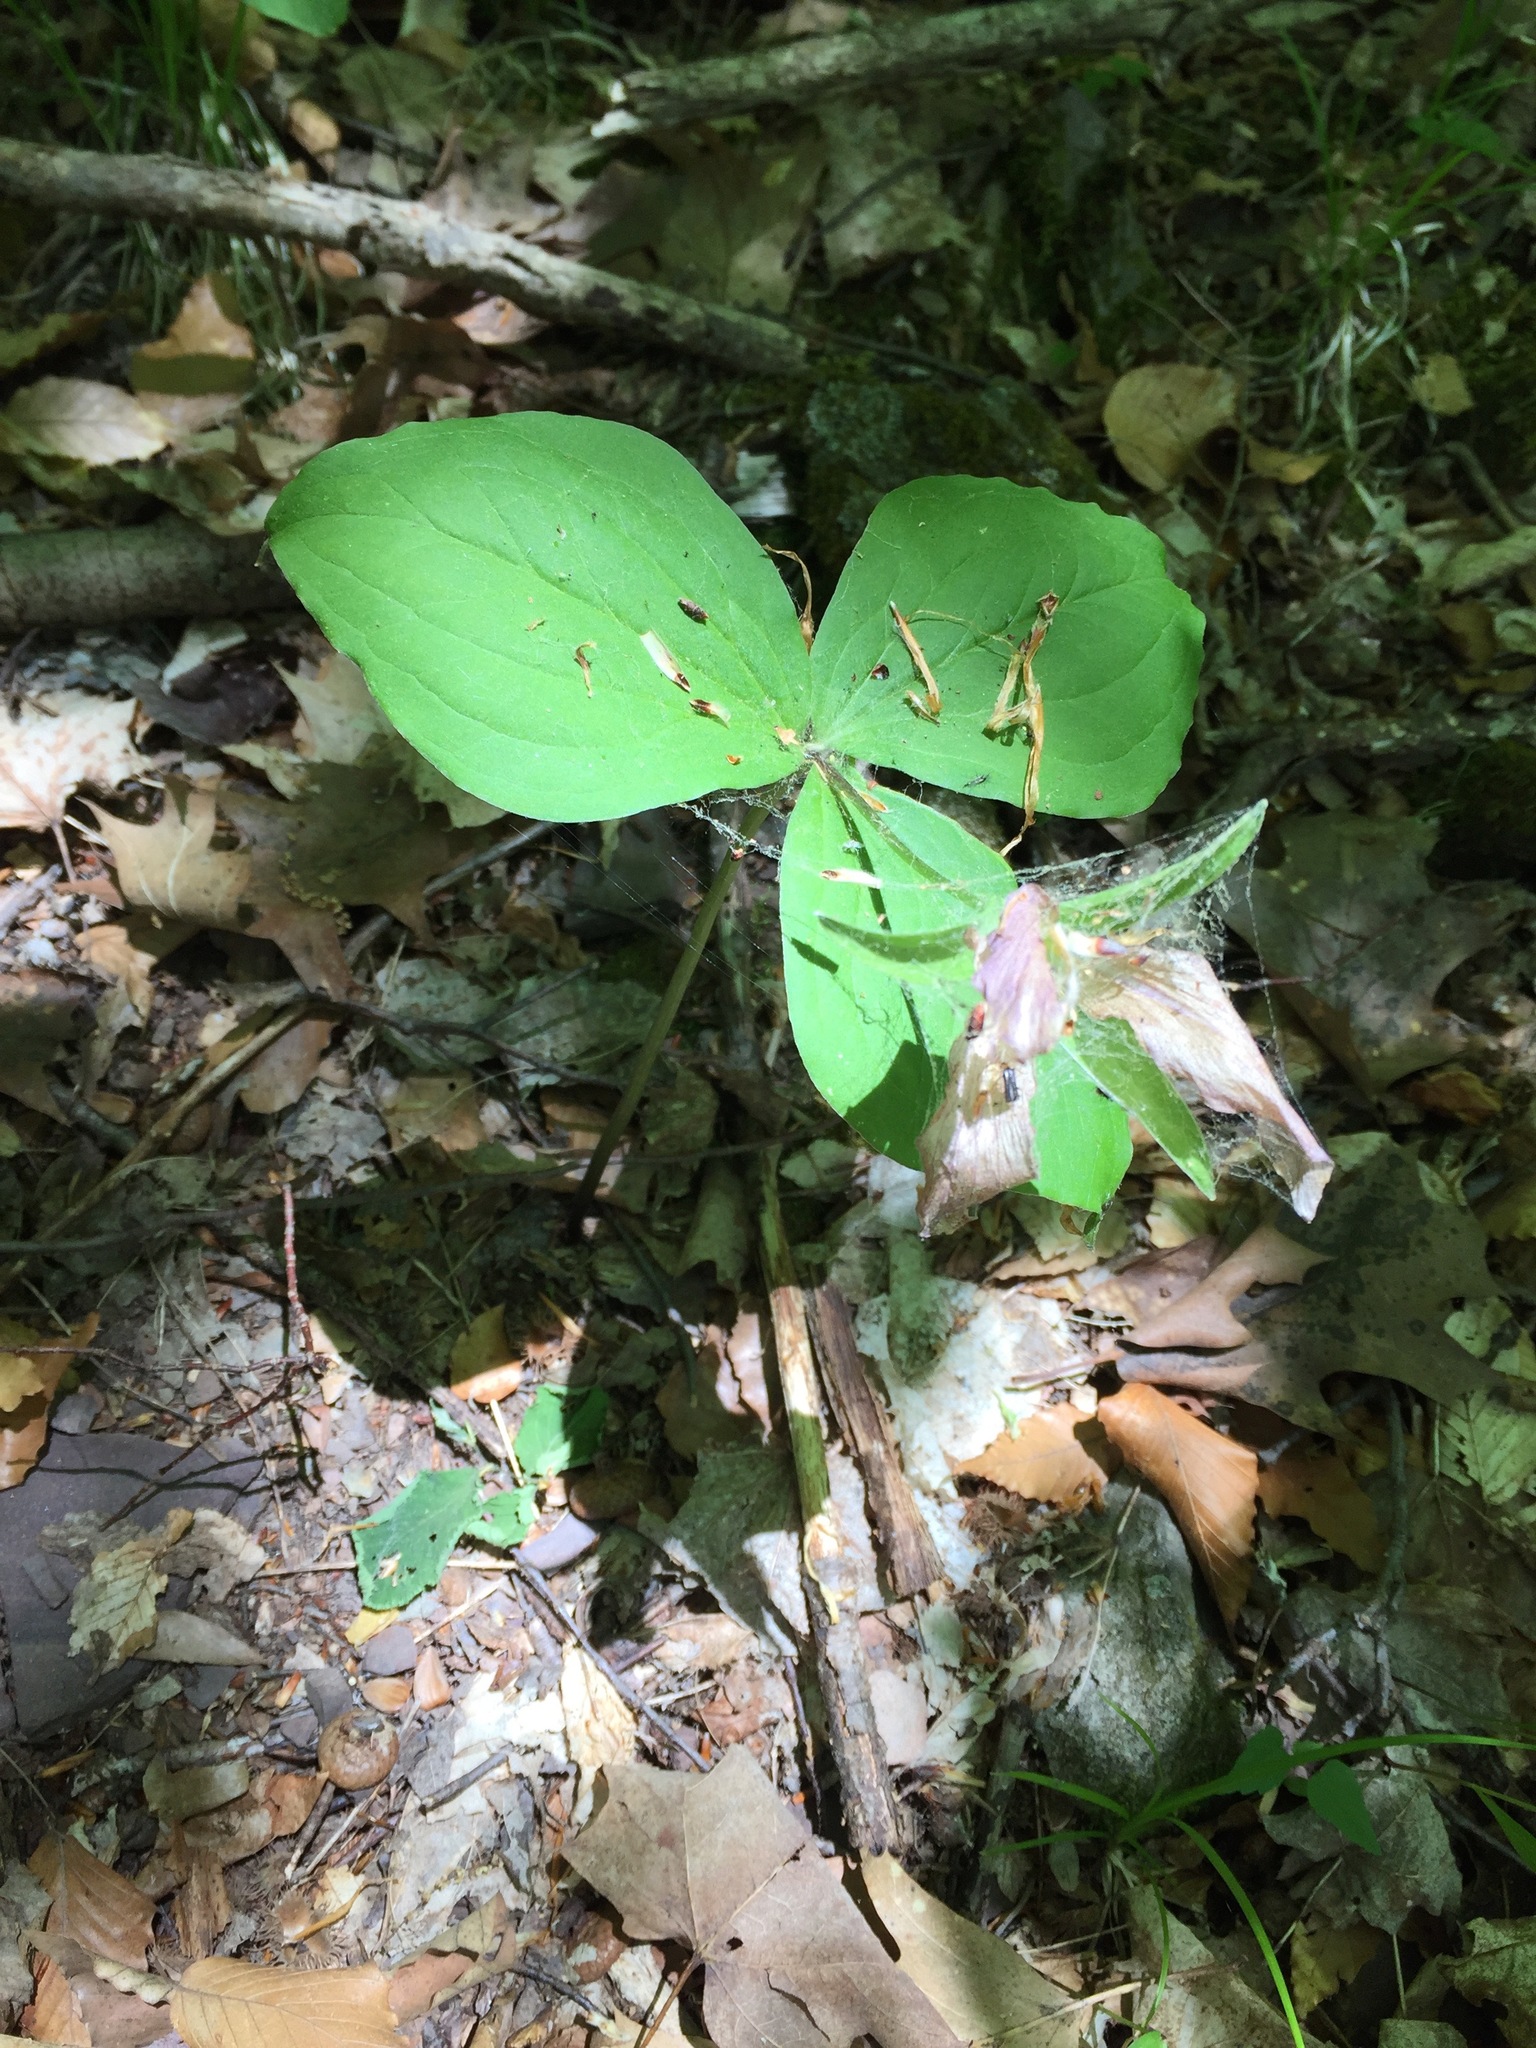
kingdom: Plantae
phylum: Tracheophyta
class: Liliopsida
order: Liliales
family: Melanthiaceae
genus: Trillium
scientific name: Trillium grandiflorum
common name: Great white trillium
